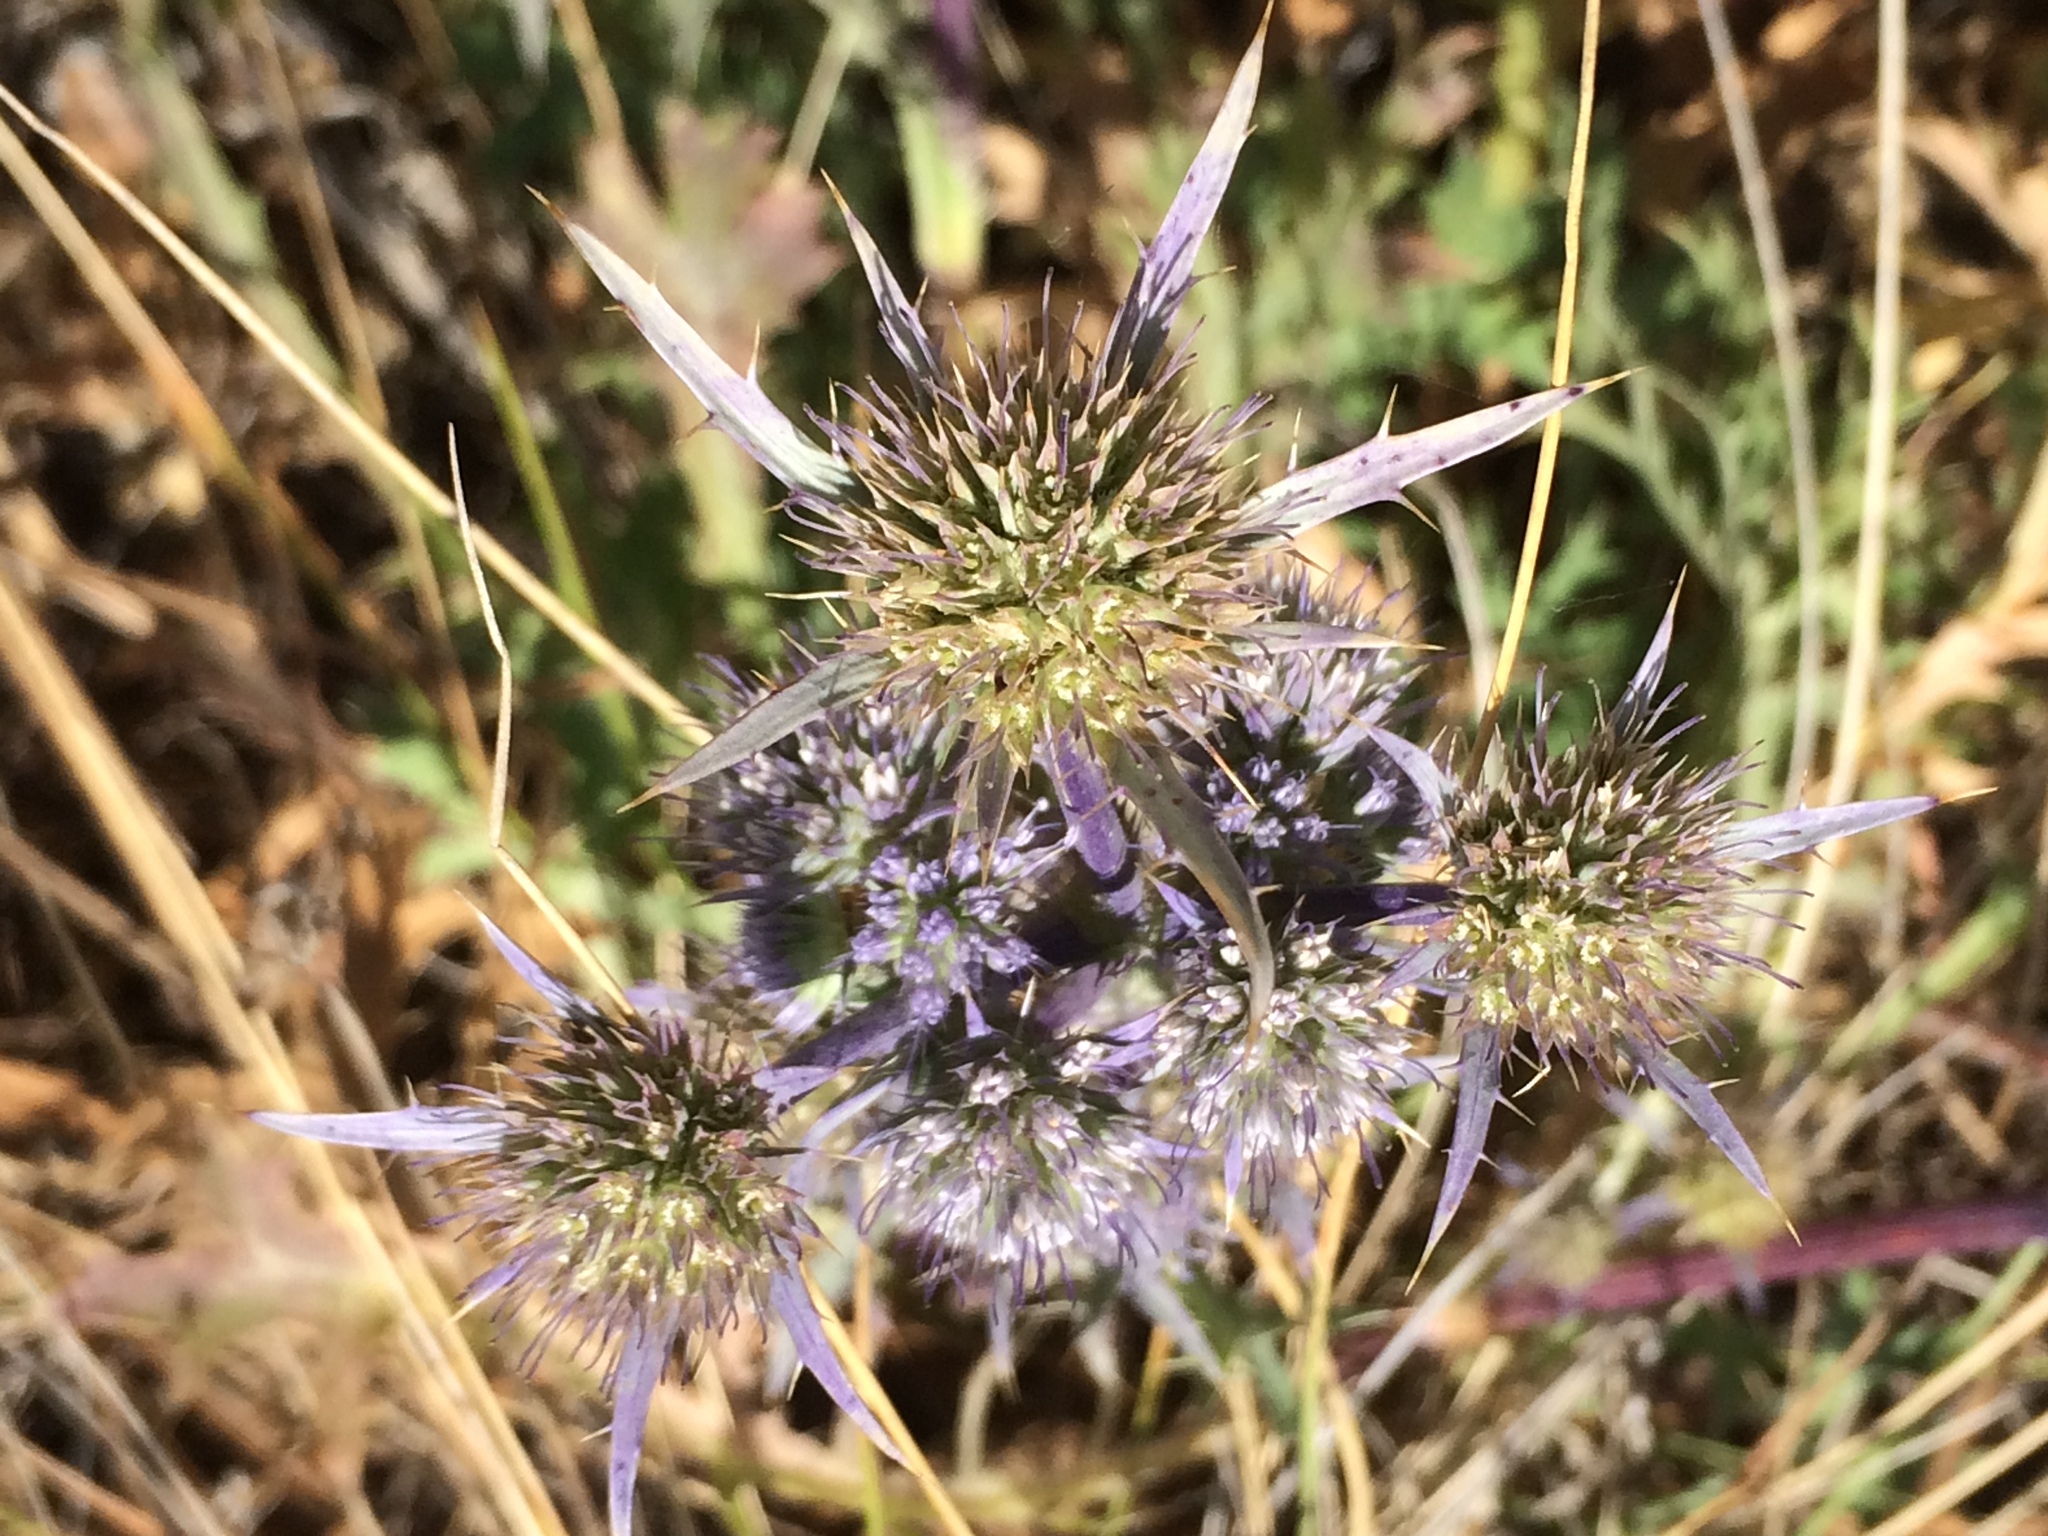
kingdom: Plantae
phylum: Tracheophyta
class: Magnoliopsida
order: Apiales
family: Apiaceae
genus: Eryngium
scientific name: Eryngium dilatatum
